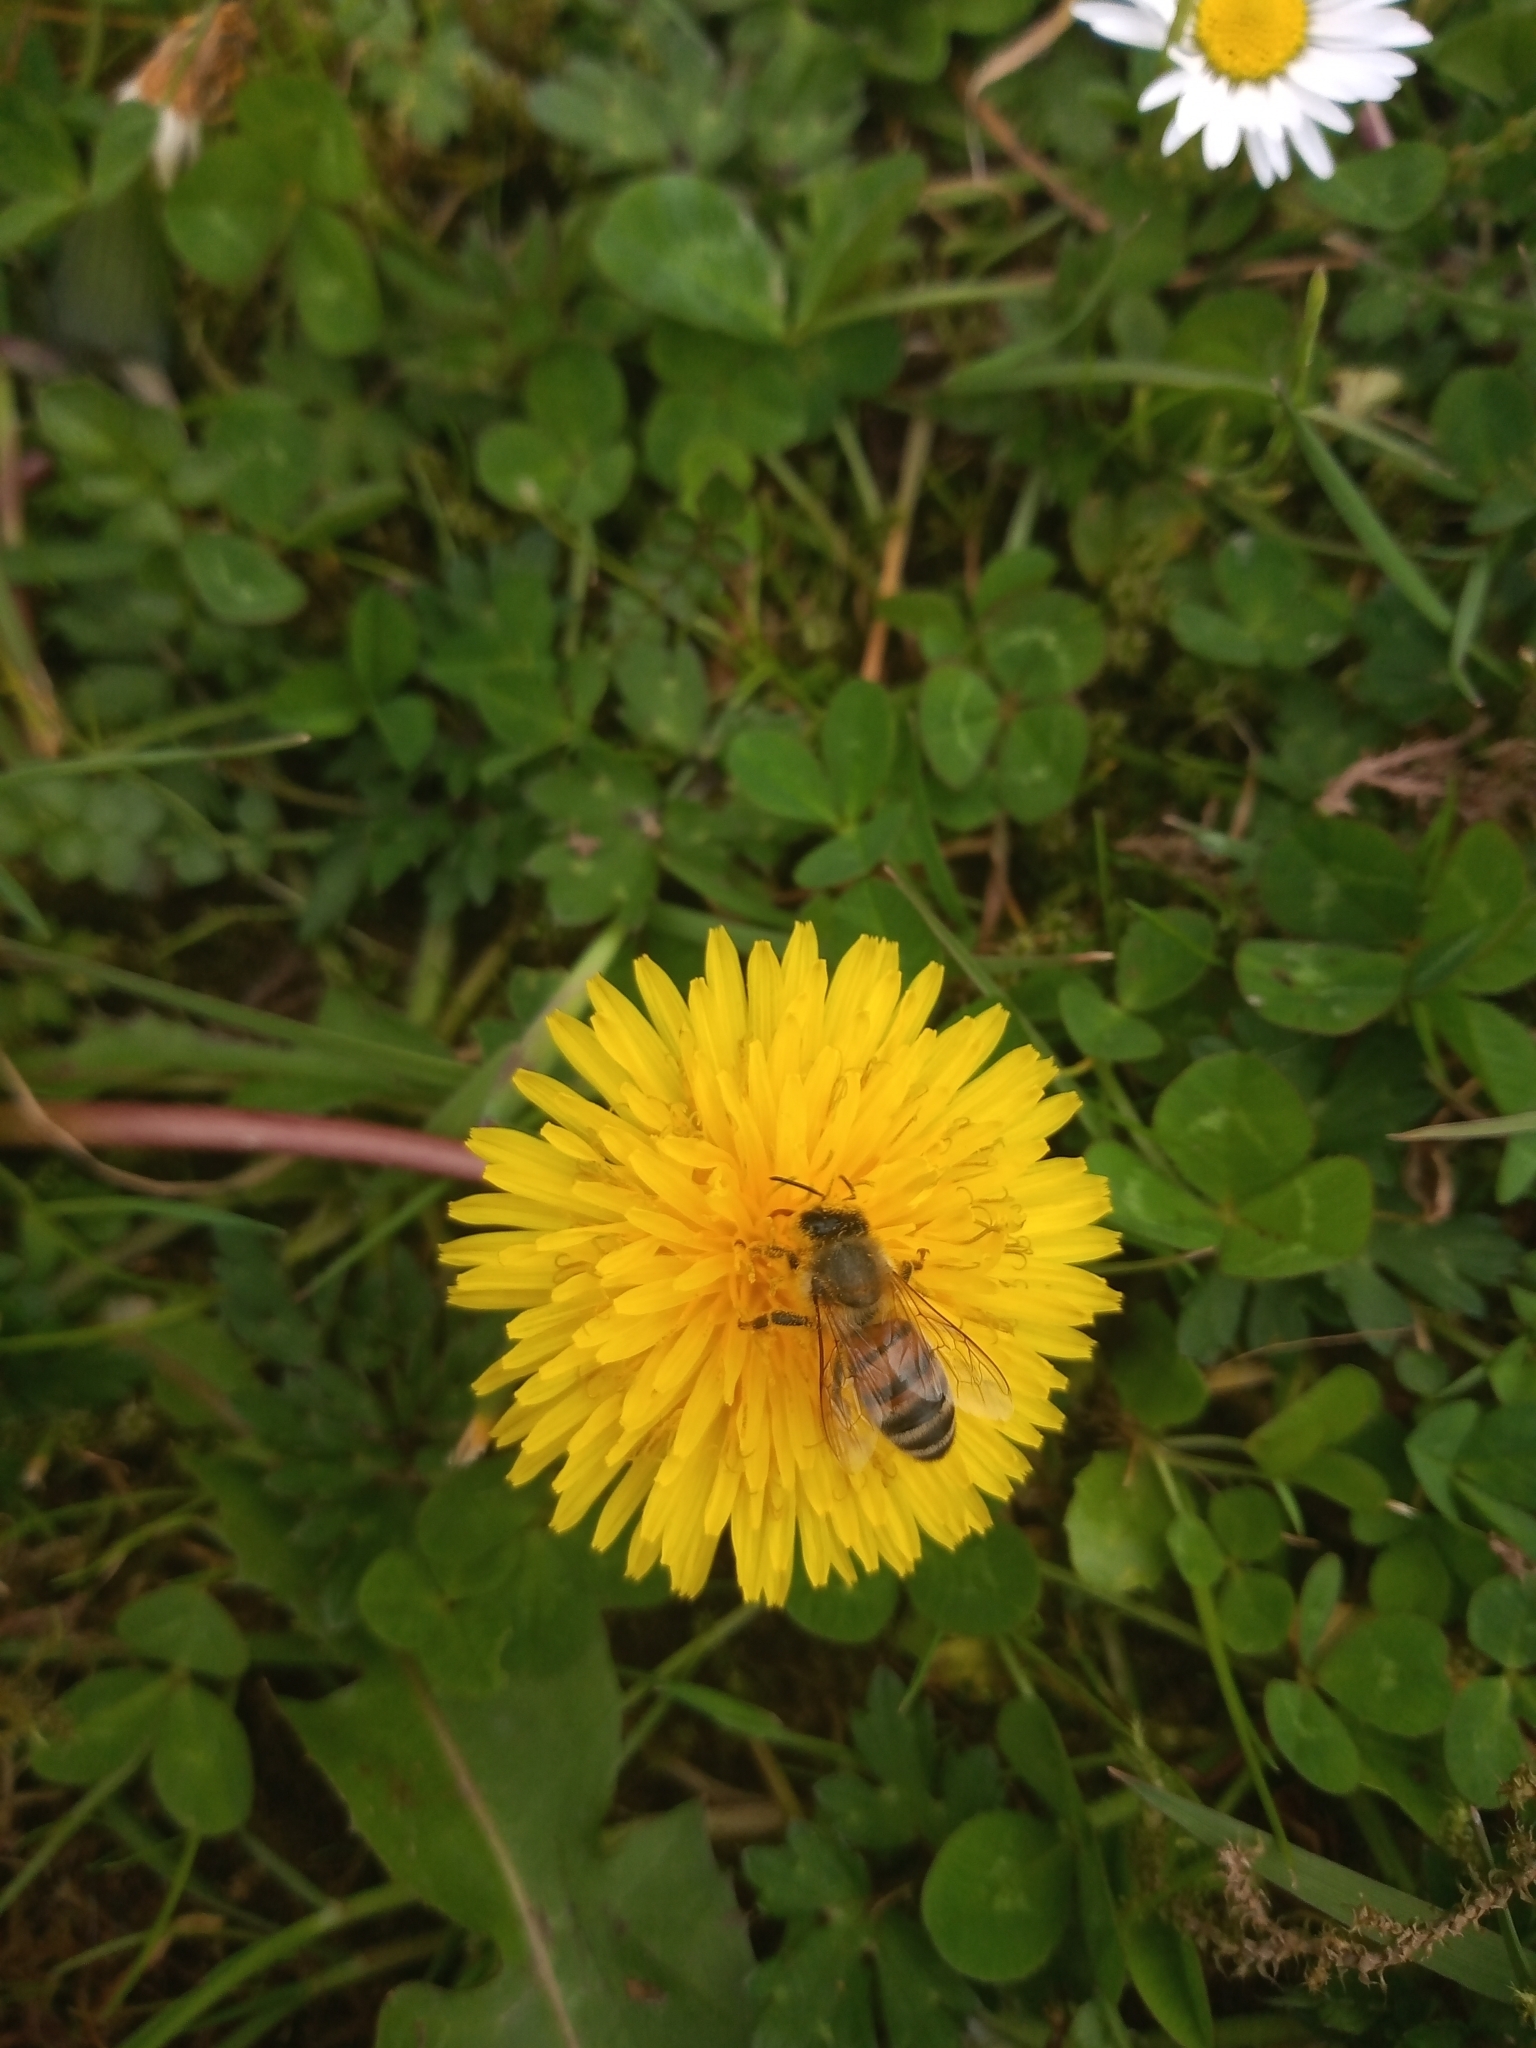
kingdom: Animalia
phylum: Arthropoda
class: Insecta
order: Hymenoptera
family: Apidae
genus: Apis
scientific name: Apis mellifera
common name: Honey bee
